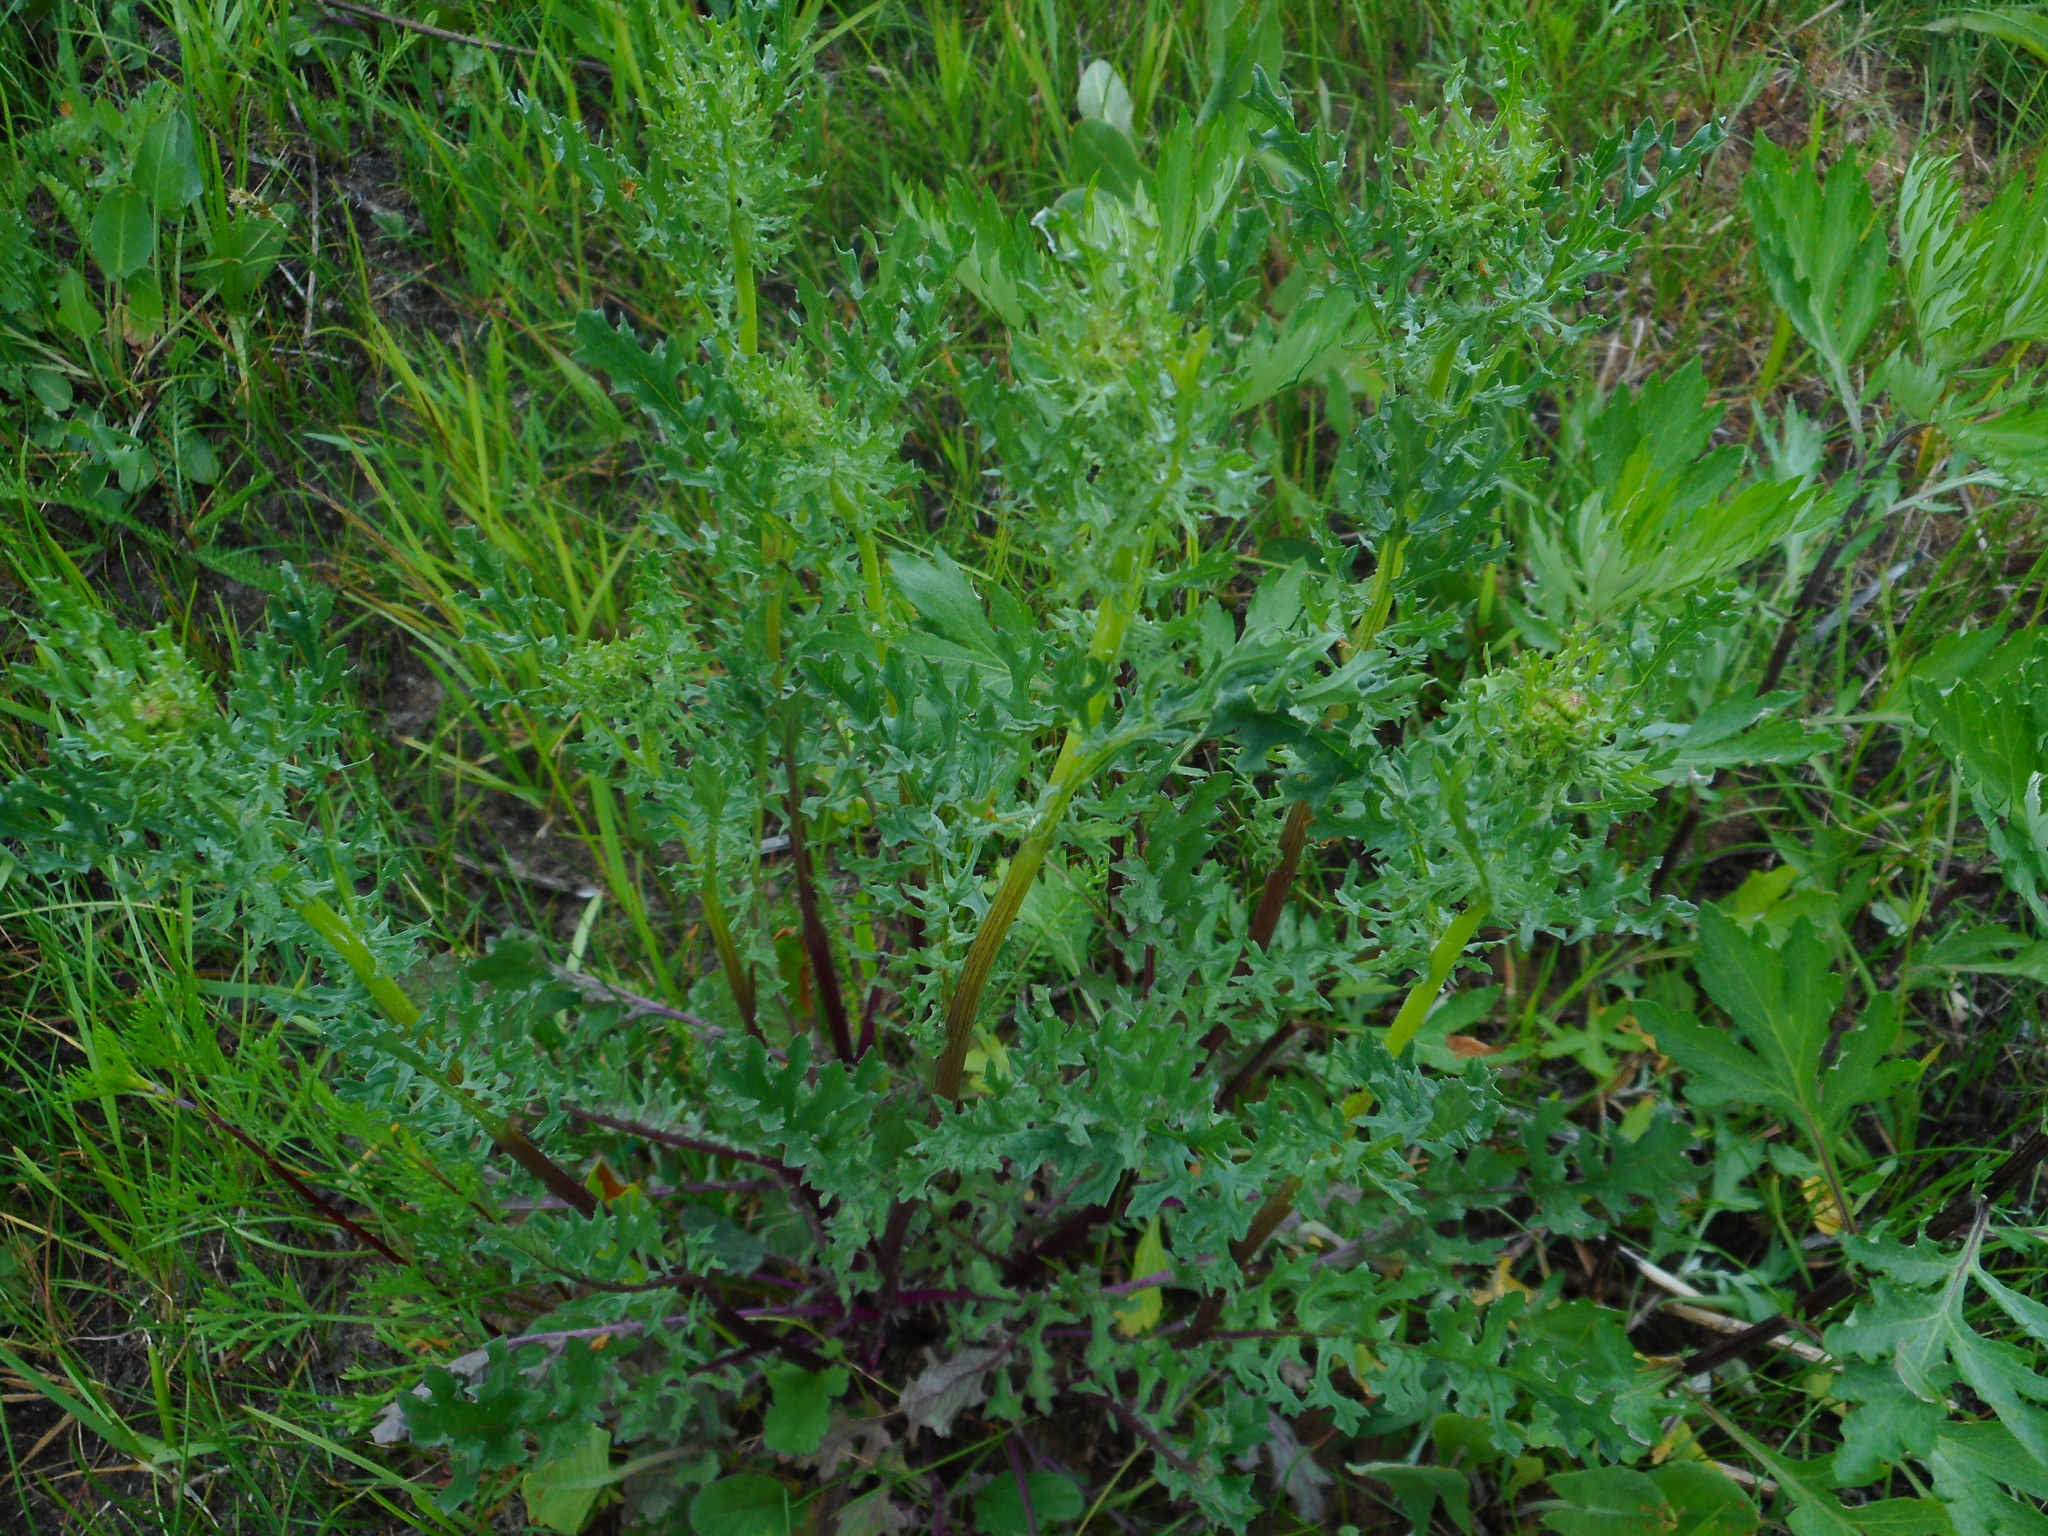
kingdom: Plantae
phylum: Tracheophyta
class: Magnoliopsida
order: Asterales
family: Asteraceae
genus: Jacobaea
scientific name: Jacobaea vulgaris
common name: Stinking willie
